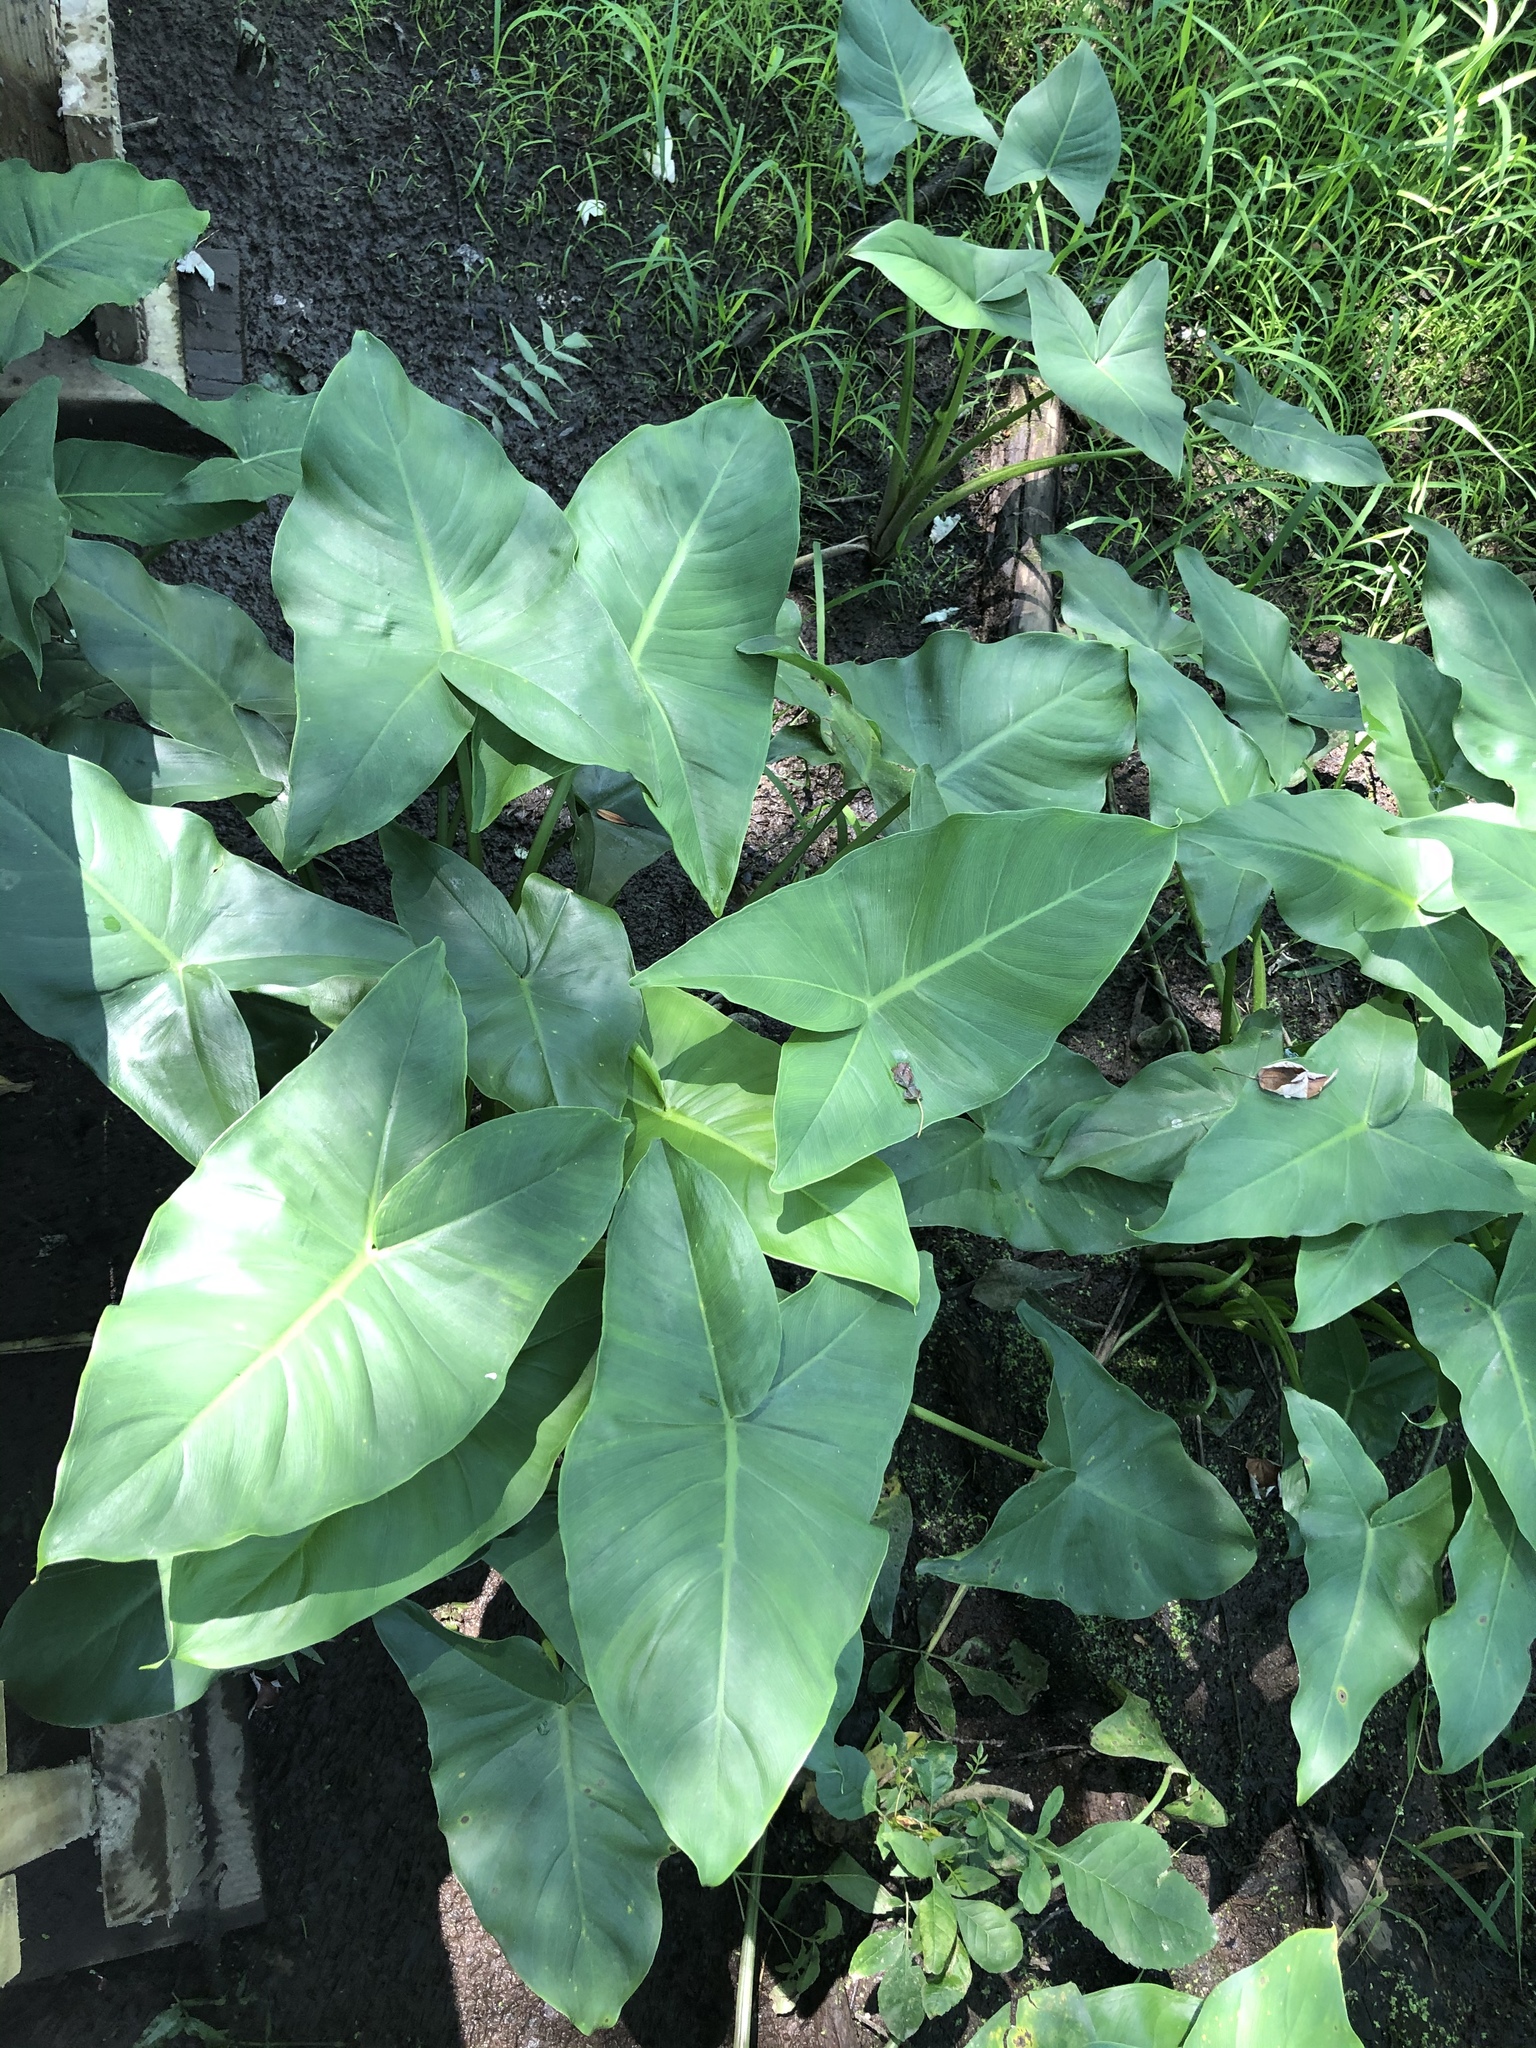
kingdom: Plantae
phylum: Tracheophyta
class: Liliopsida
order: Alismatales
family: Araceae
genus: Peltandra
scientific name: Peltandra virginica
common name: Arrow arum
